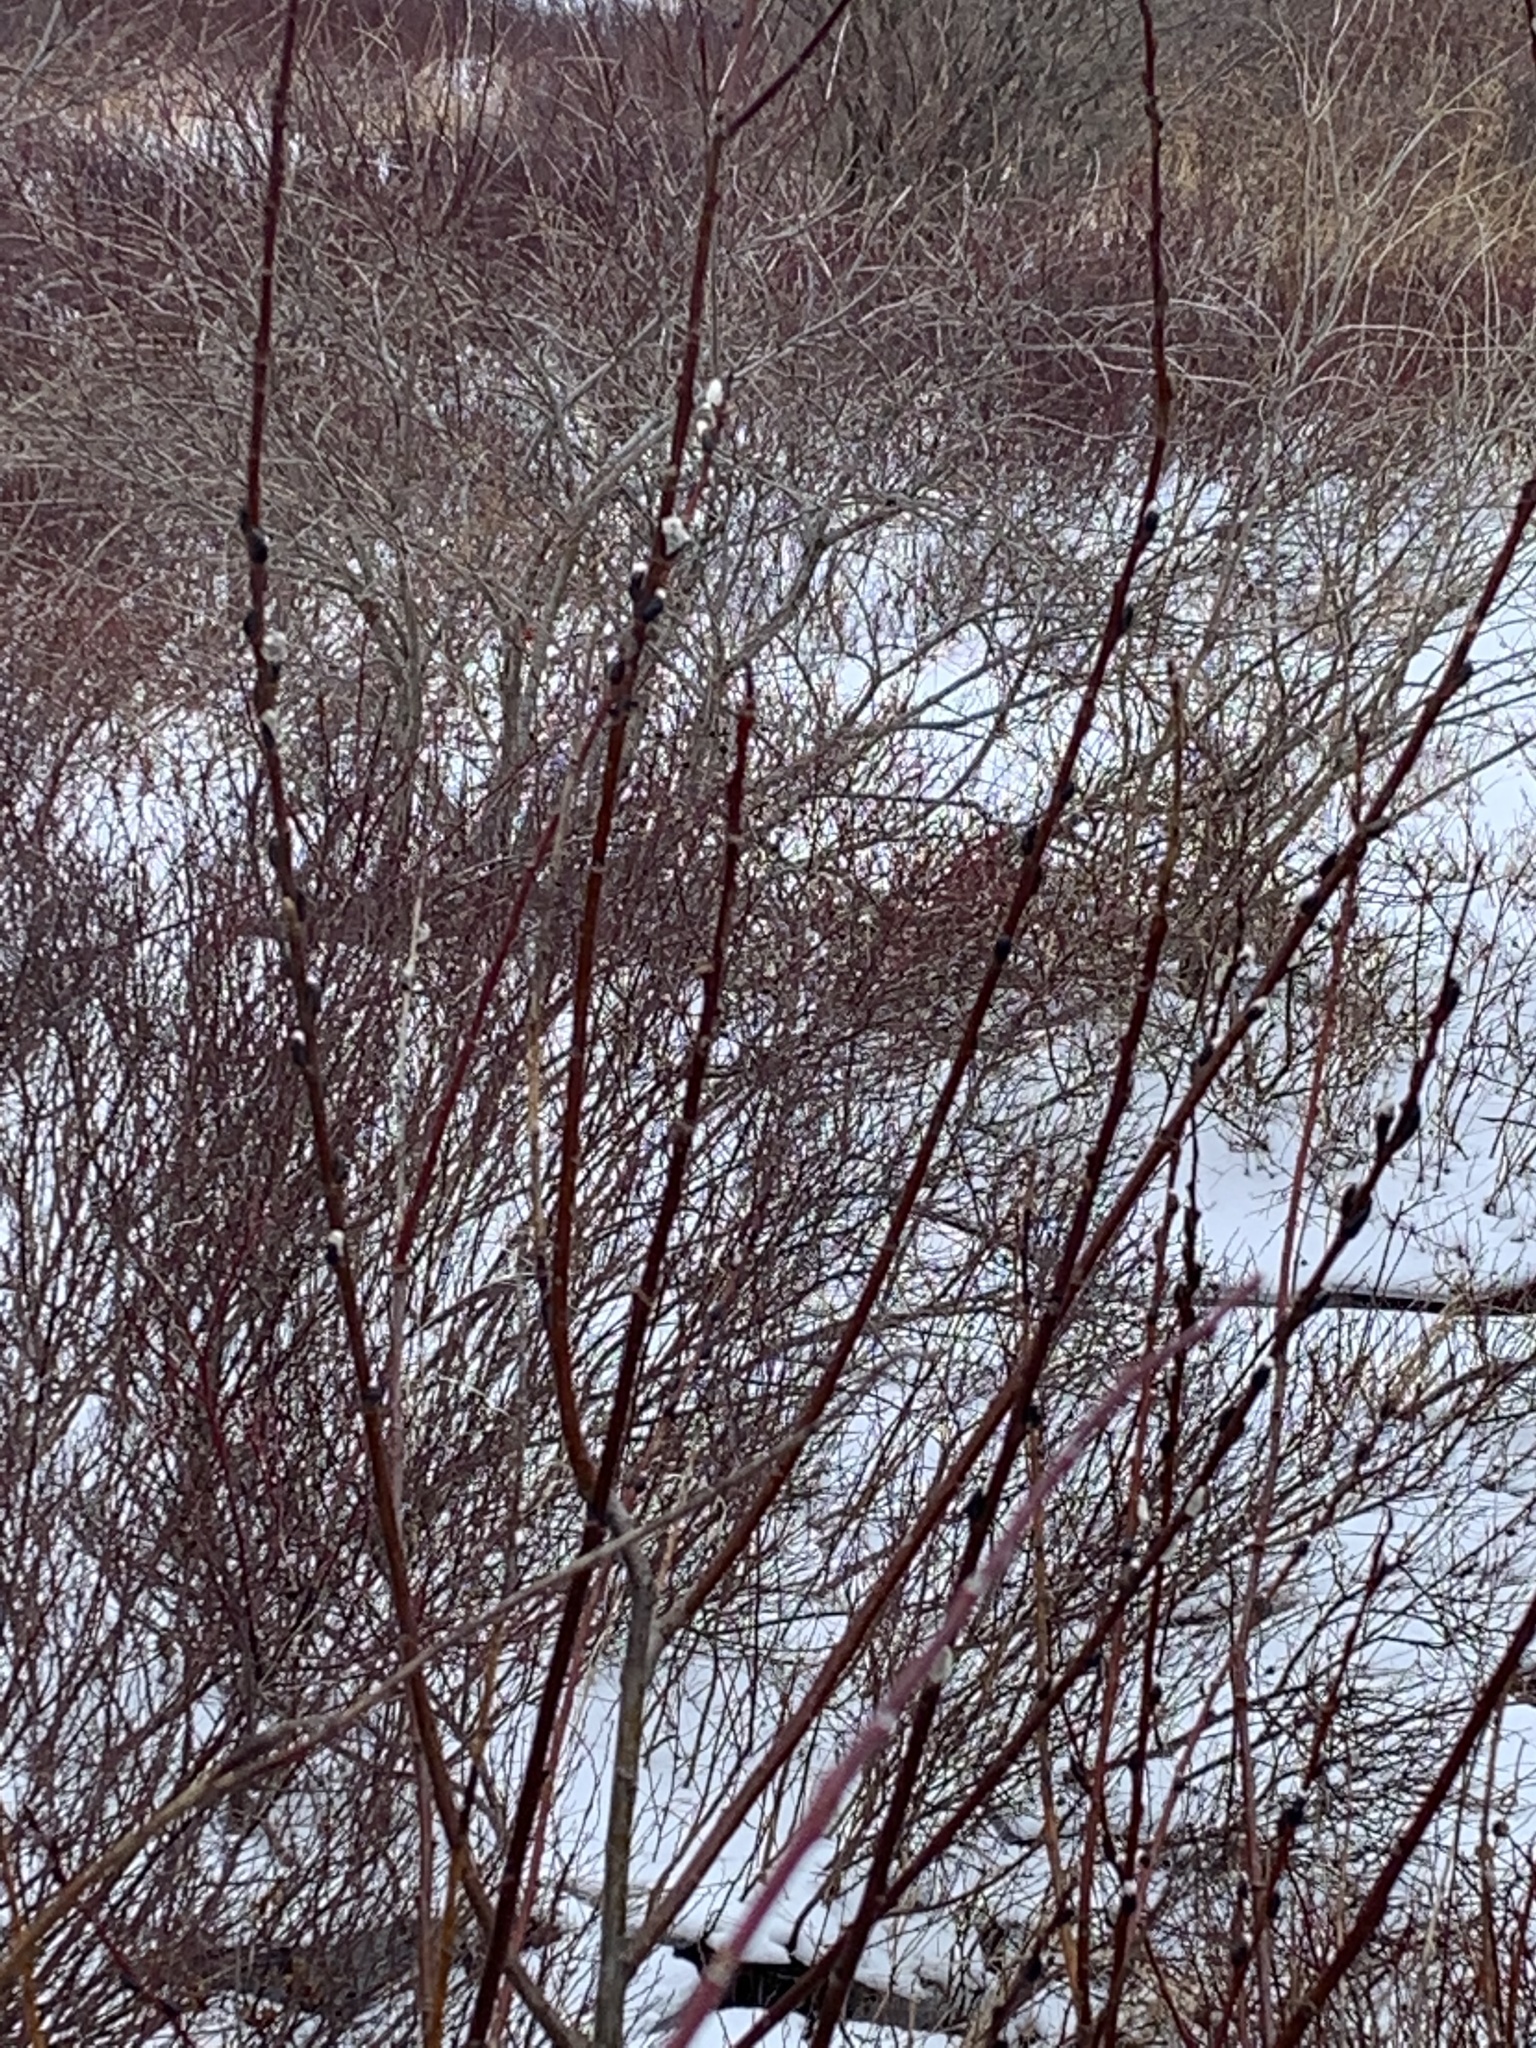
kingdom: Plantae
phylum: Tracheophyta
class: Magnoliopsida
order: Cornales
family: Cornaceae
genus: Cornus
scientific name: Cornus sericea
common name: Red-osier dogwood
